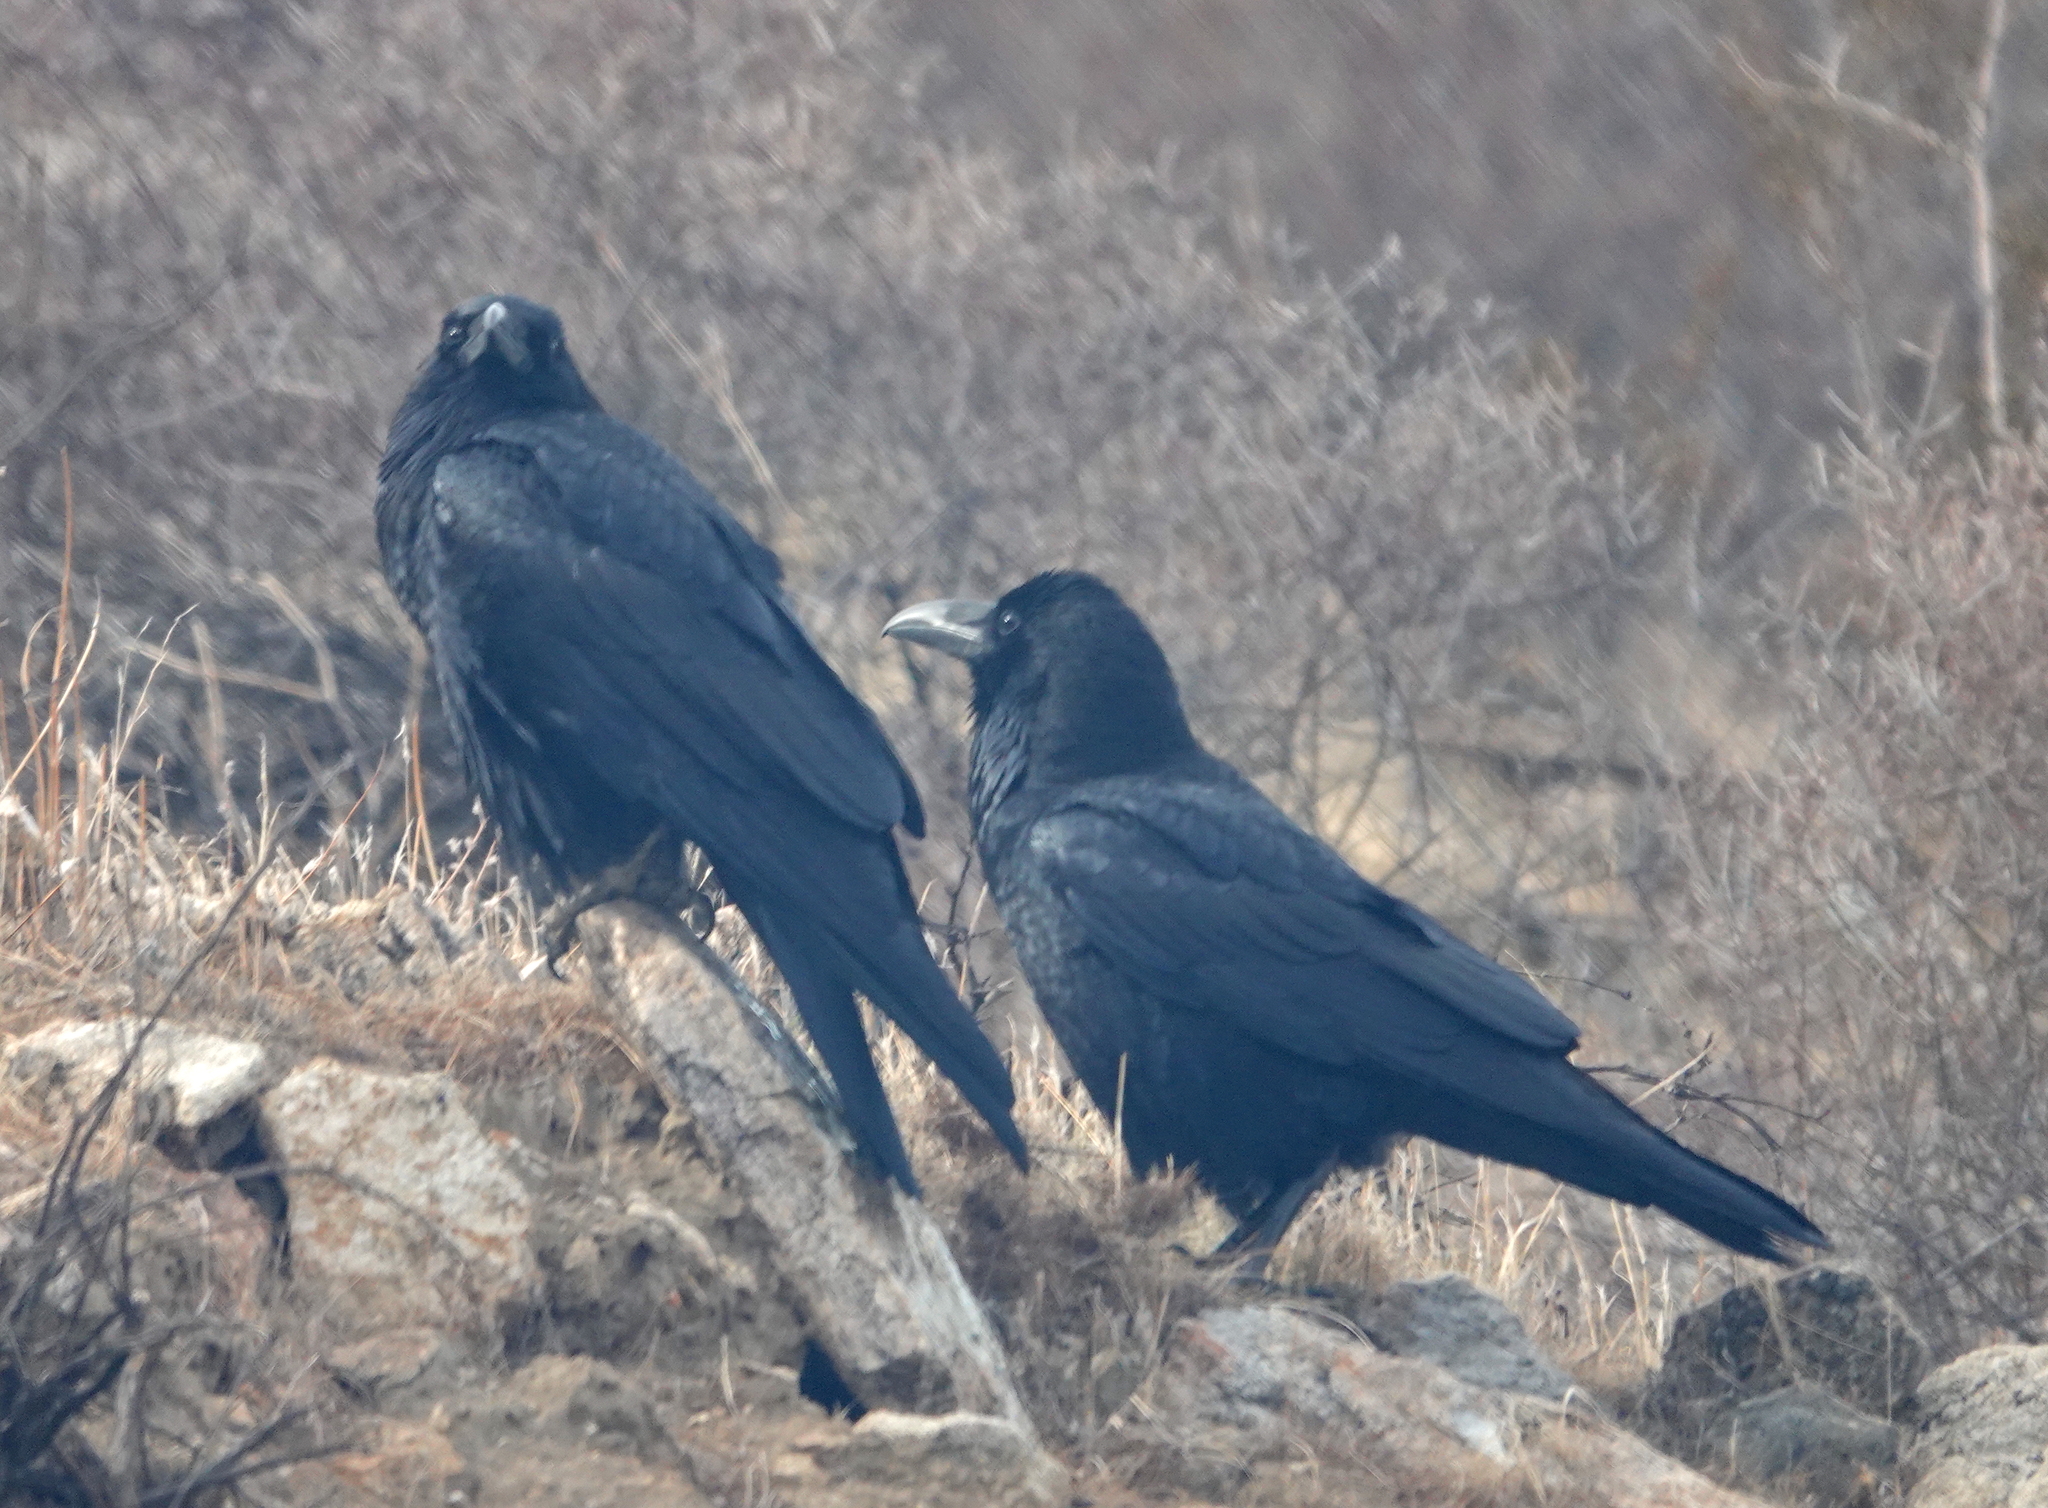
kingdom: Animalia
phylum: Chordata
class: Aves
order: Passeriformes
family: Corvidae
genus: Corvus
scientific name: Corvus corax
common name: Common raven
